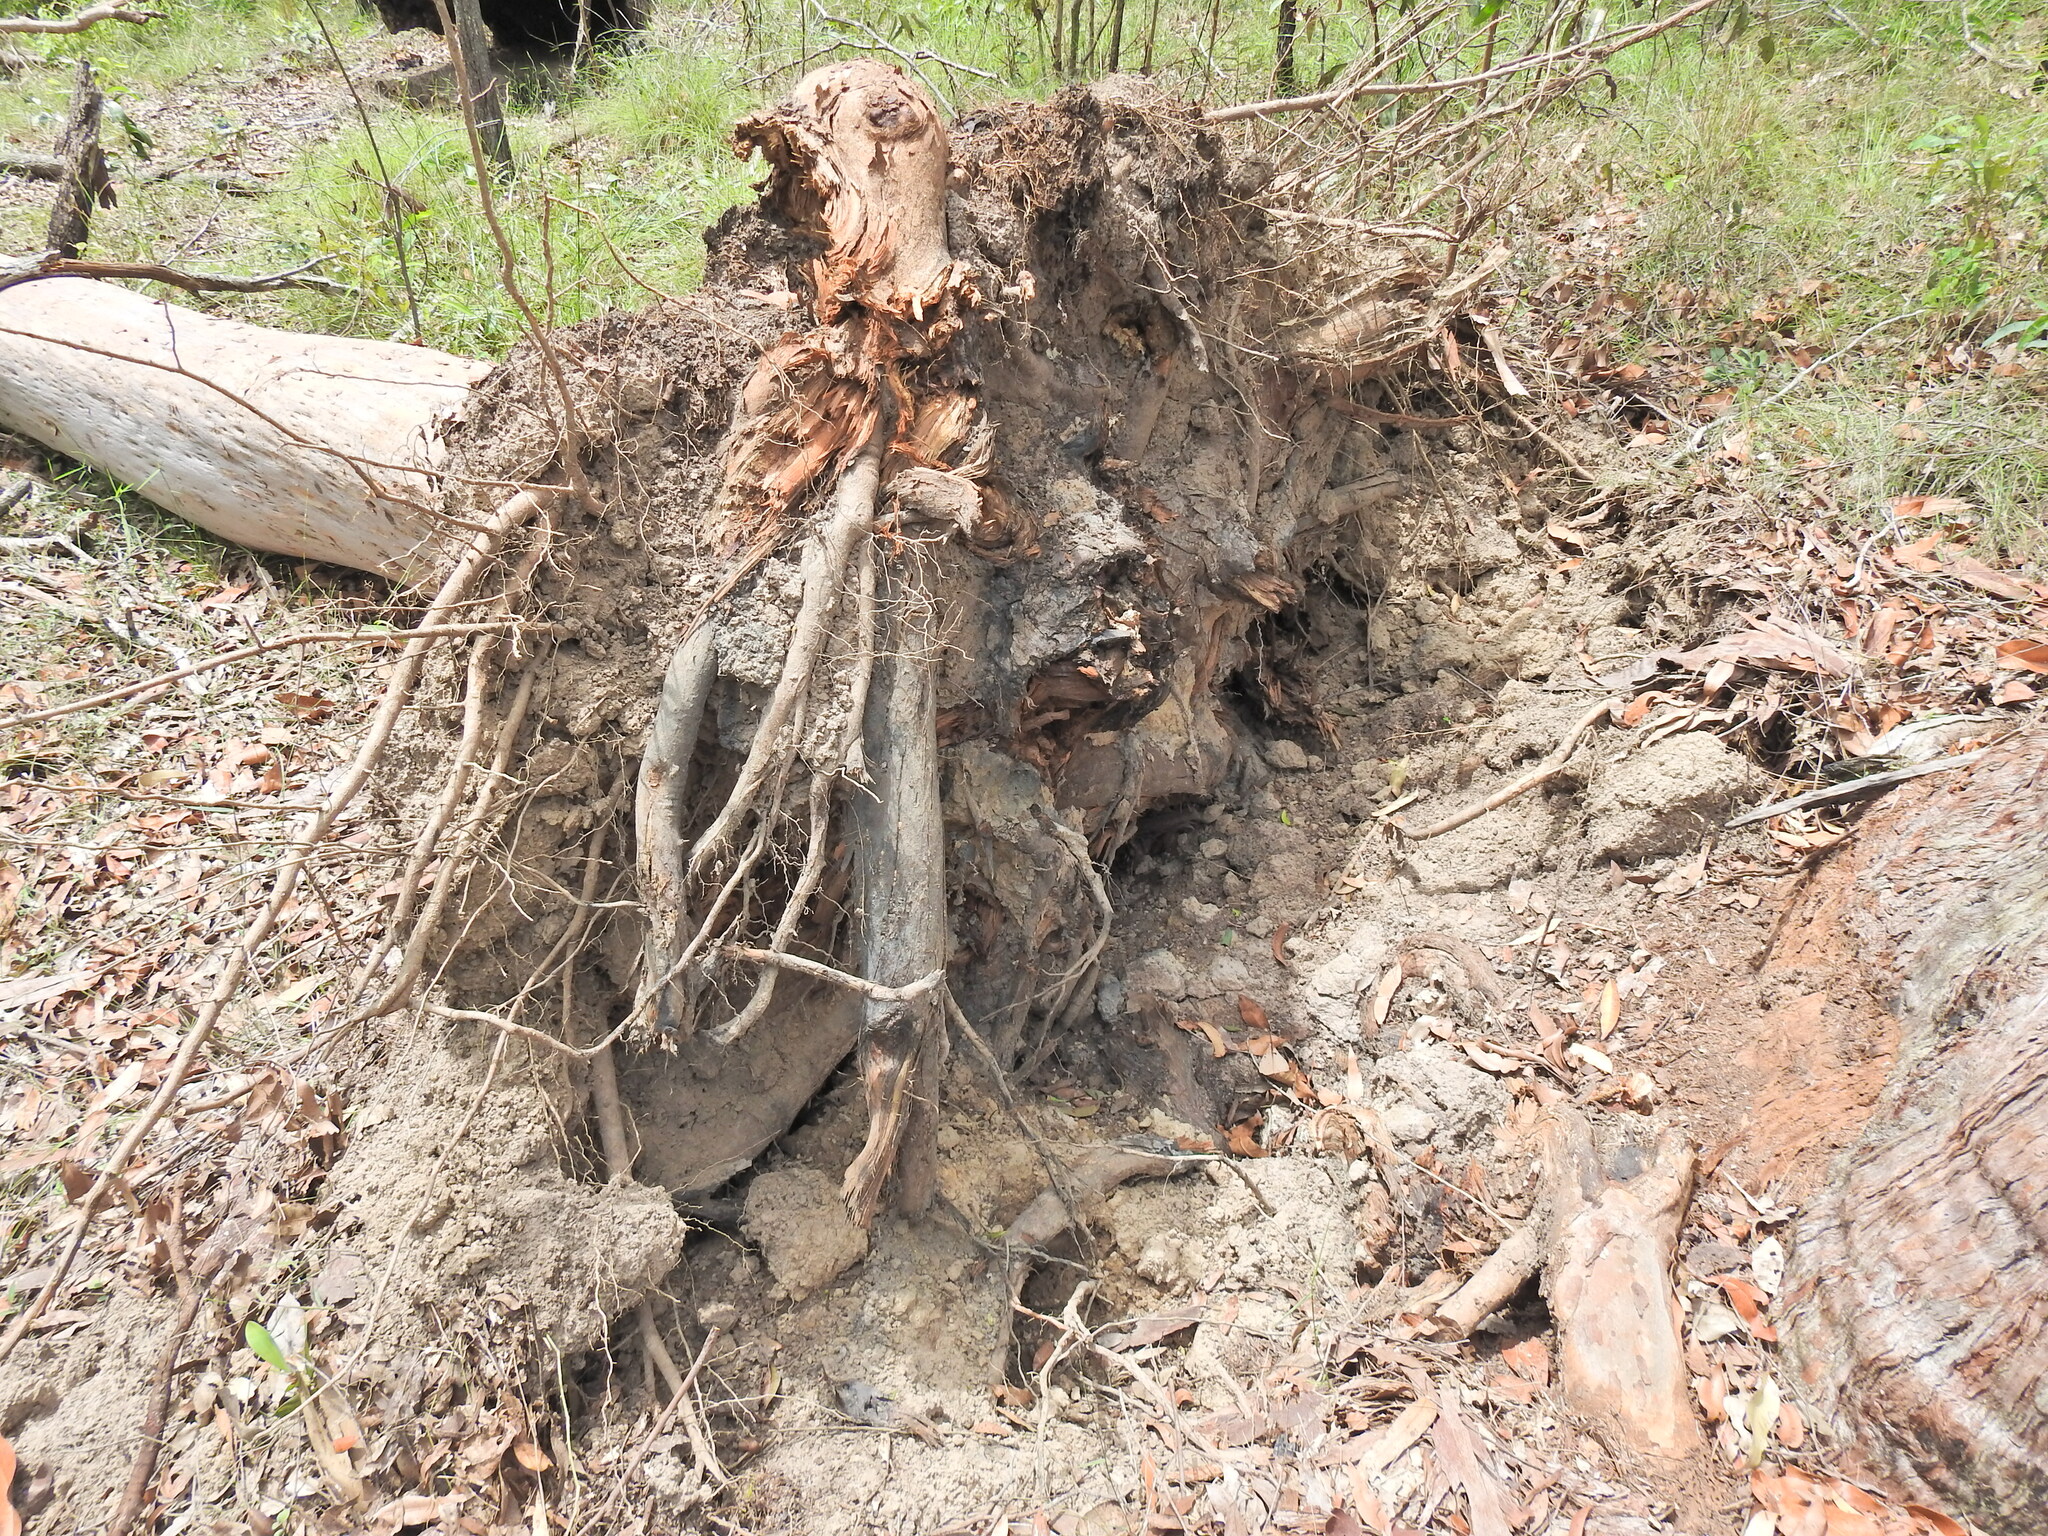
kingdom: Plantae
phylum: Tracheophyta
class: Magnoliopsida
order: Myrtales
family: Myrtaceae
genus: Angophora
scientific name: Angophora leiocarpa
